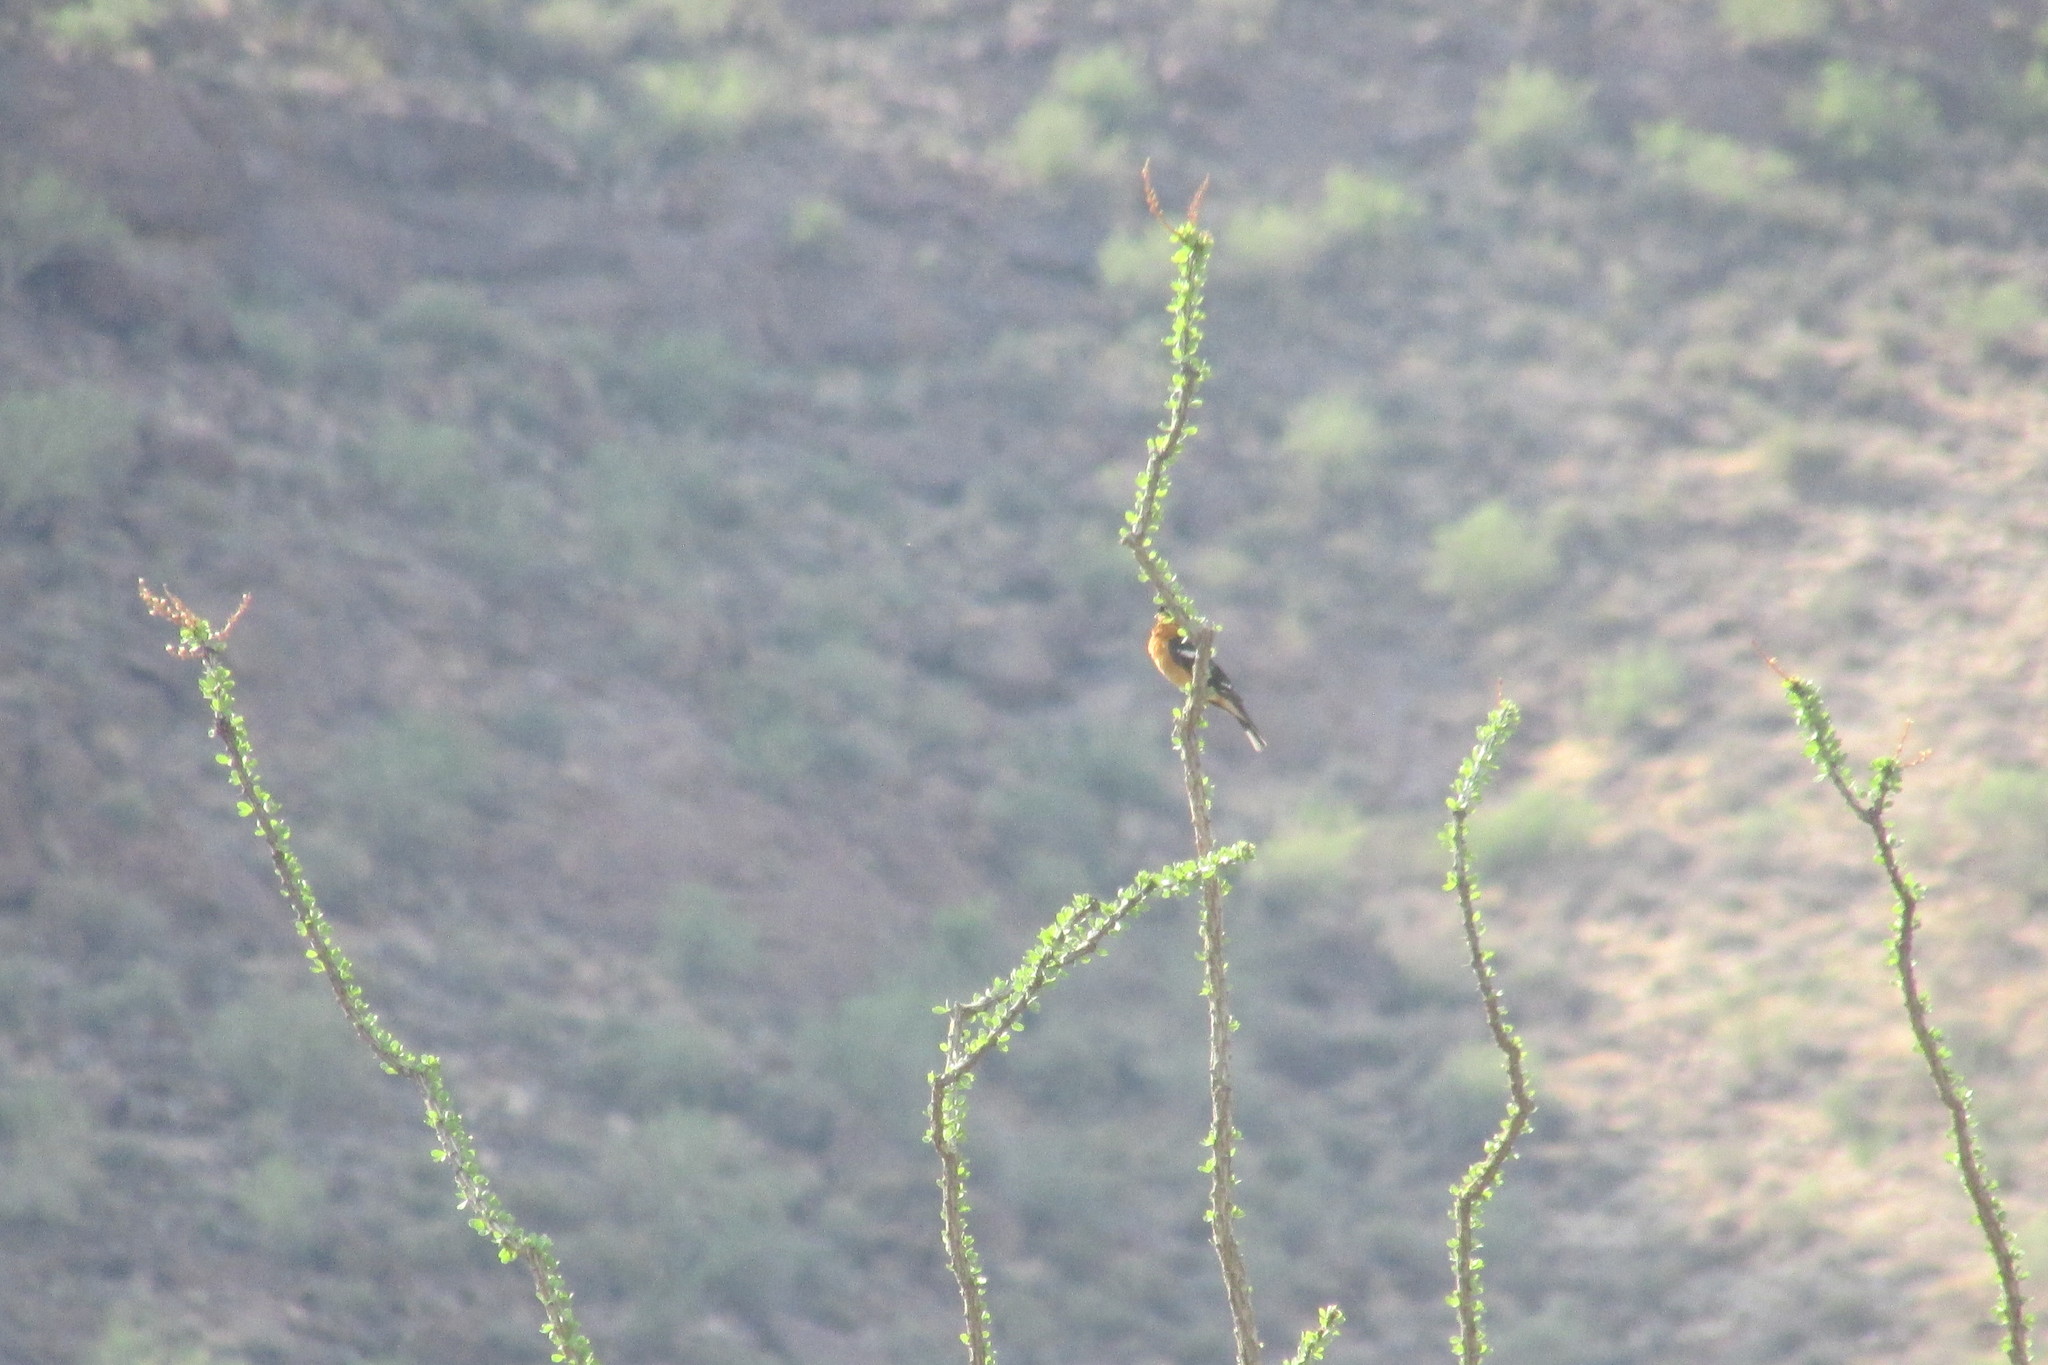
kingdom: Animalia
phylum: Chordata
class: Aves
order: Passeriformes
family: Cardinalidae
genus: Pheucticus
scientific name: Pheucticus melanocephalus
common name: Black-headed grosbeak
